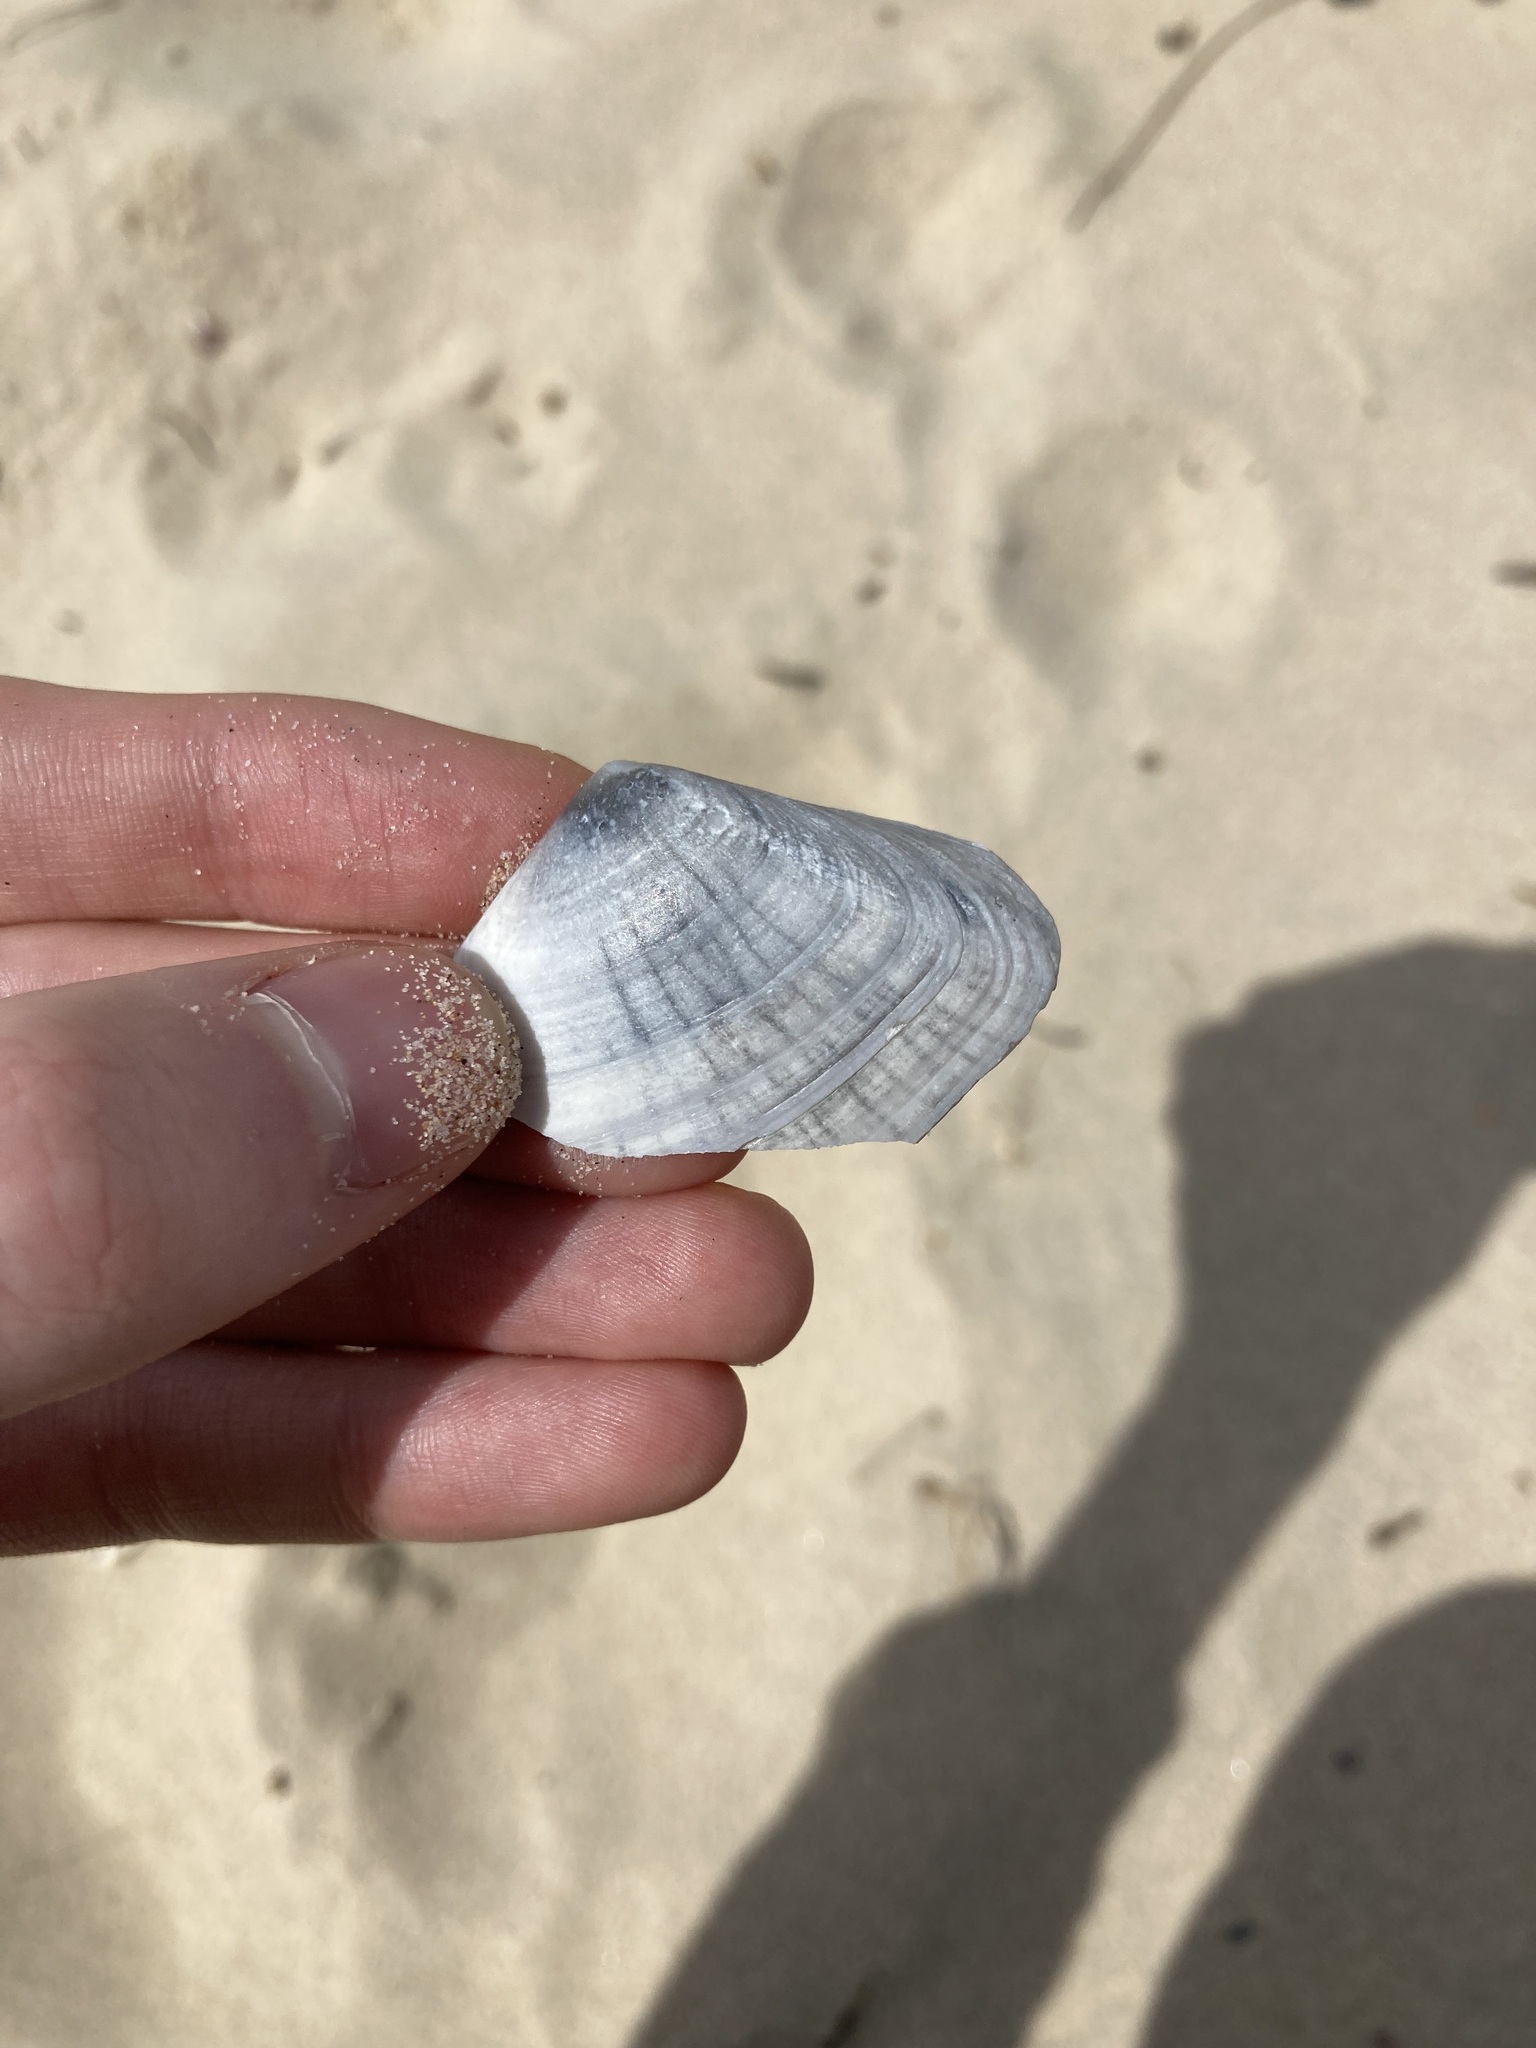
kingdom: Animalia
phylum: Mollusca
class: Bivalvia
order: Cardiida
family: Donacidae
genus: Latona
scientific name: Latona deltoides
